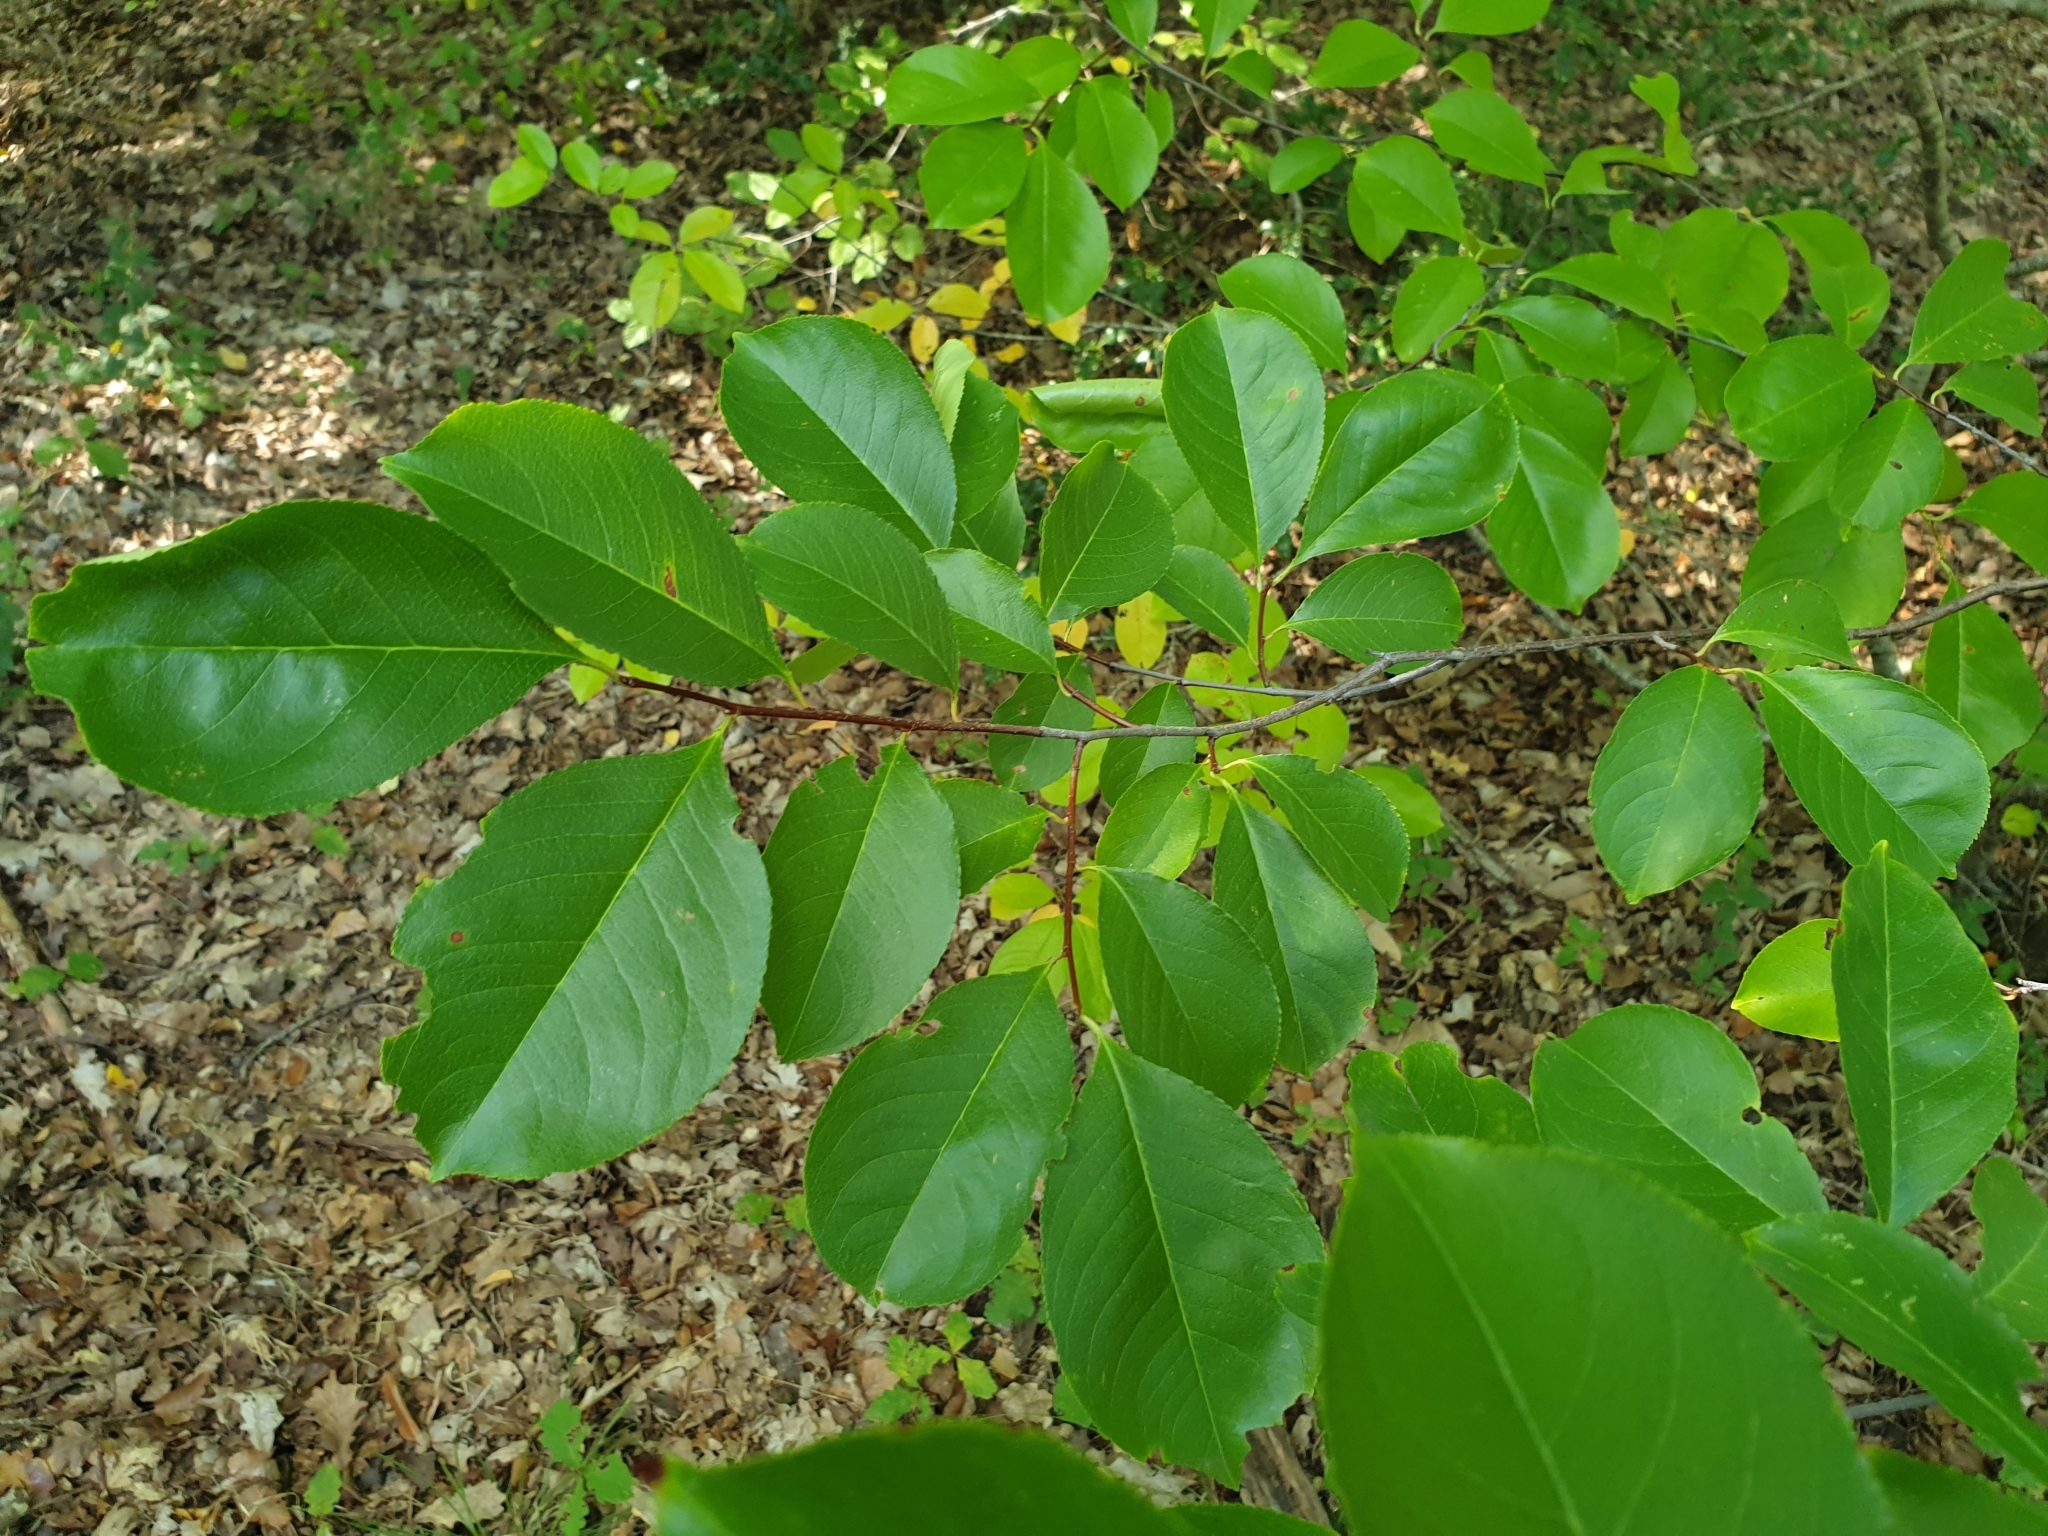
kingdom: Plantae
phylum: Tracheophyta
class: Magnoliopsida
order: Rosales
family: Rosaceae
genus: Prunus
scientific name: Prunus serotina
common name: Black cherry
